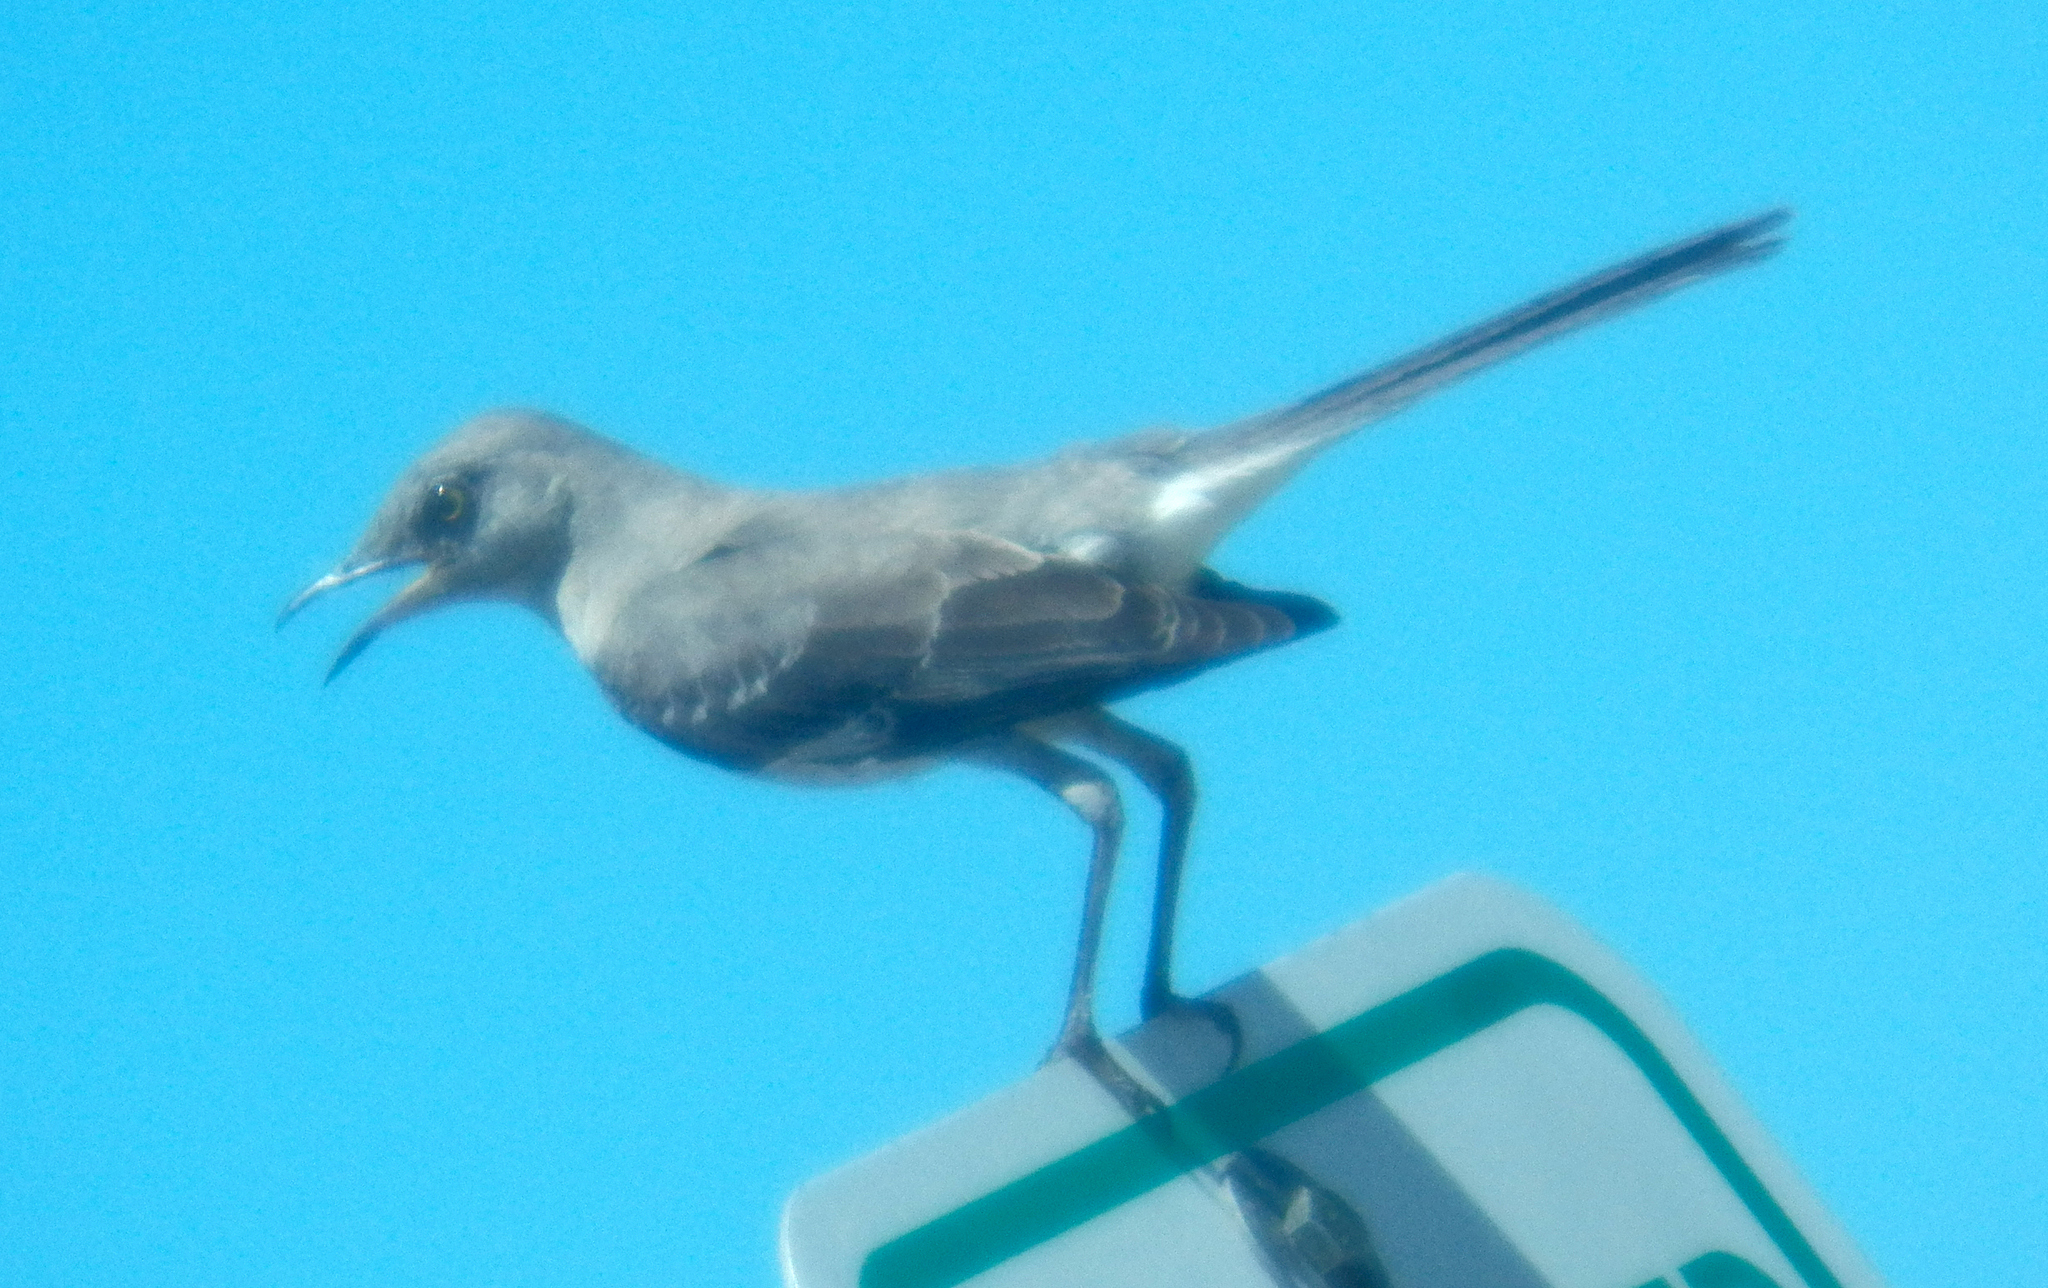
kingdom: Animalia
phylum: Chordata
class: Aves
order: Passeriformes
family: Mimidae
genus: Mimus
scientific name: Mimus polyglottos
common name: Northern mockingbird
